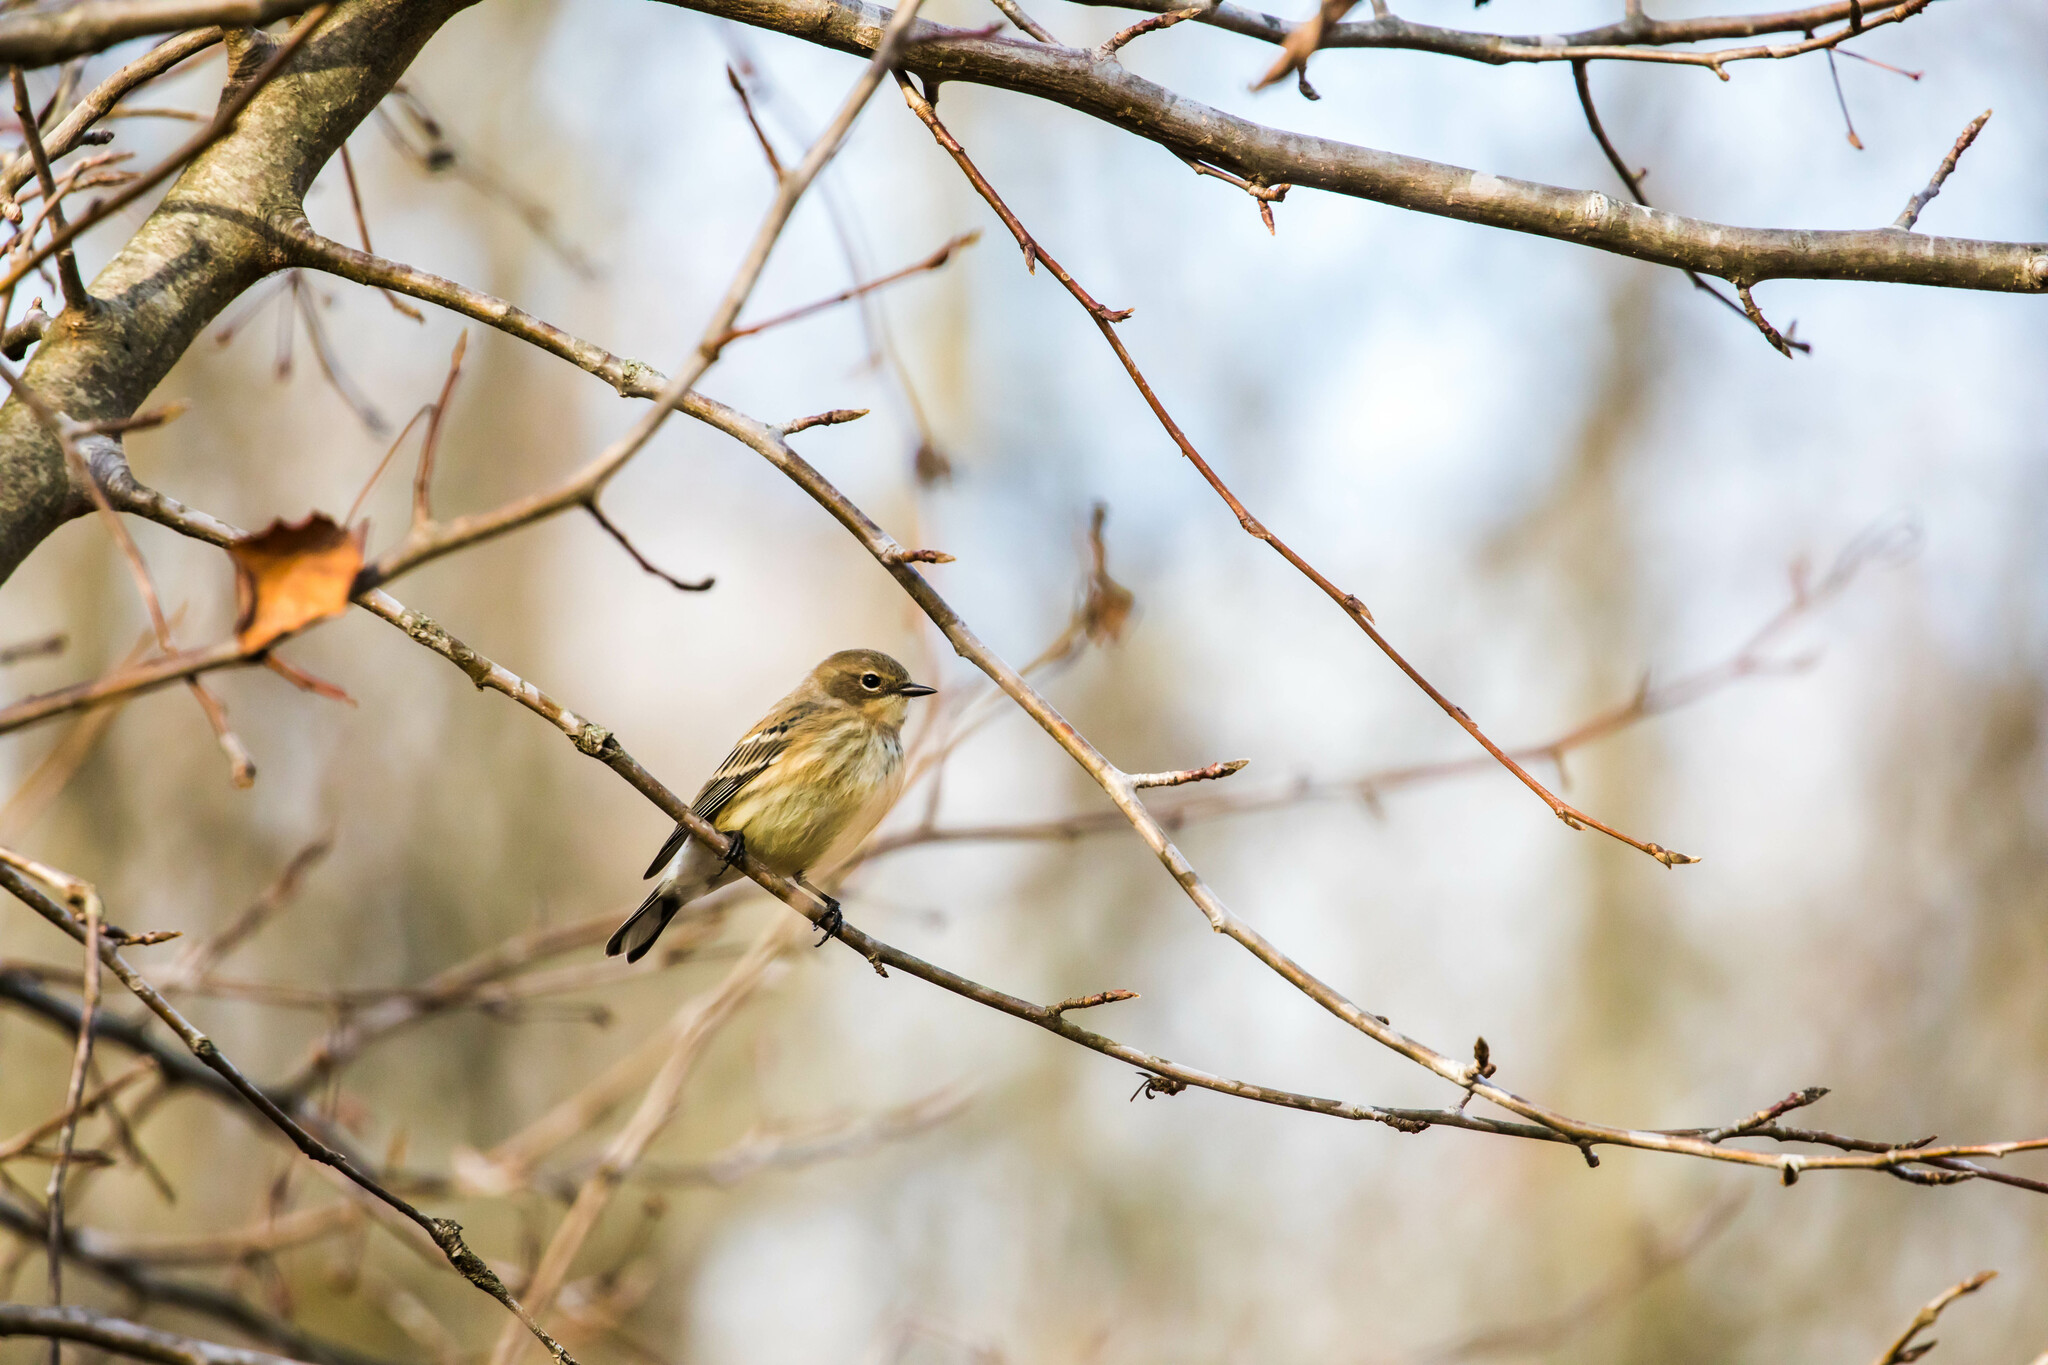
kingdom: Animalia
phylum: Chordata
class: Aves
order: Passeriformes
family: Parulidae
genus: Setophaga
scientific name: Setophaga coronata
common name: Myrtle warbler
